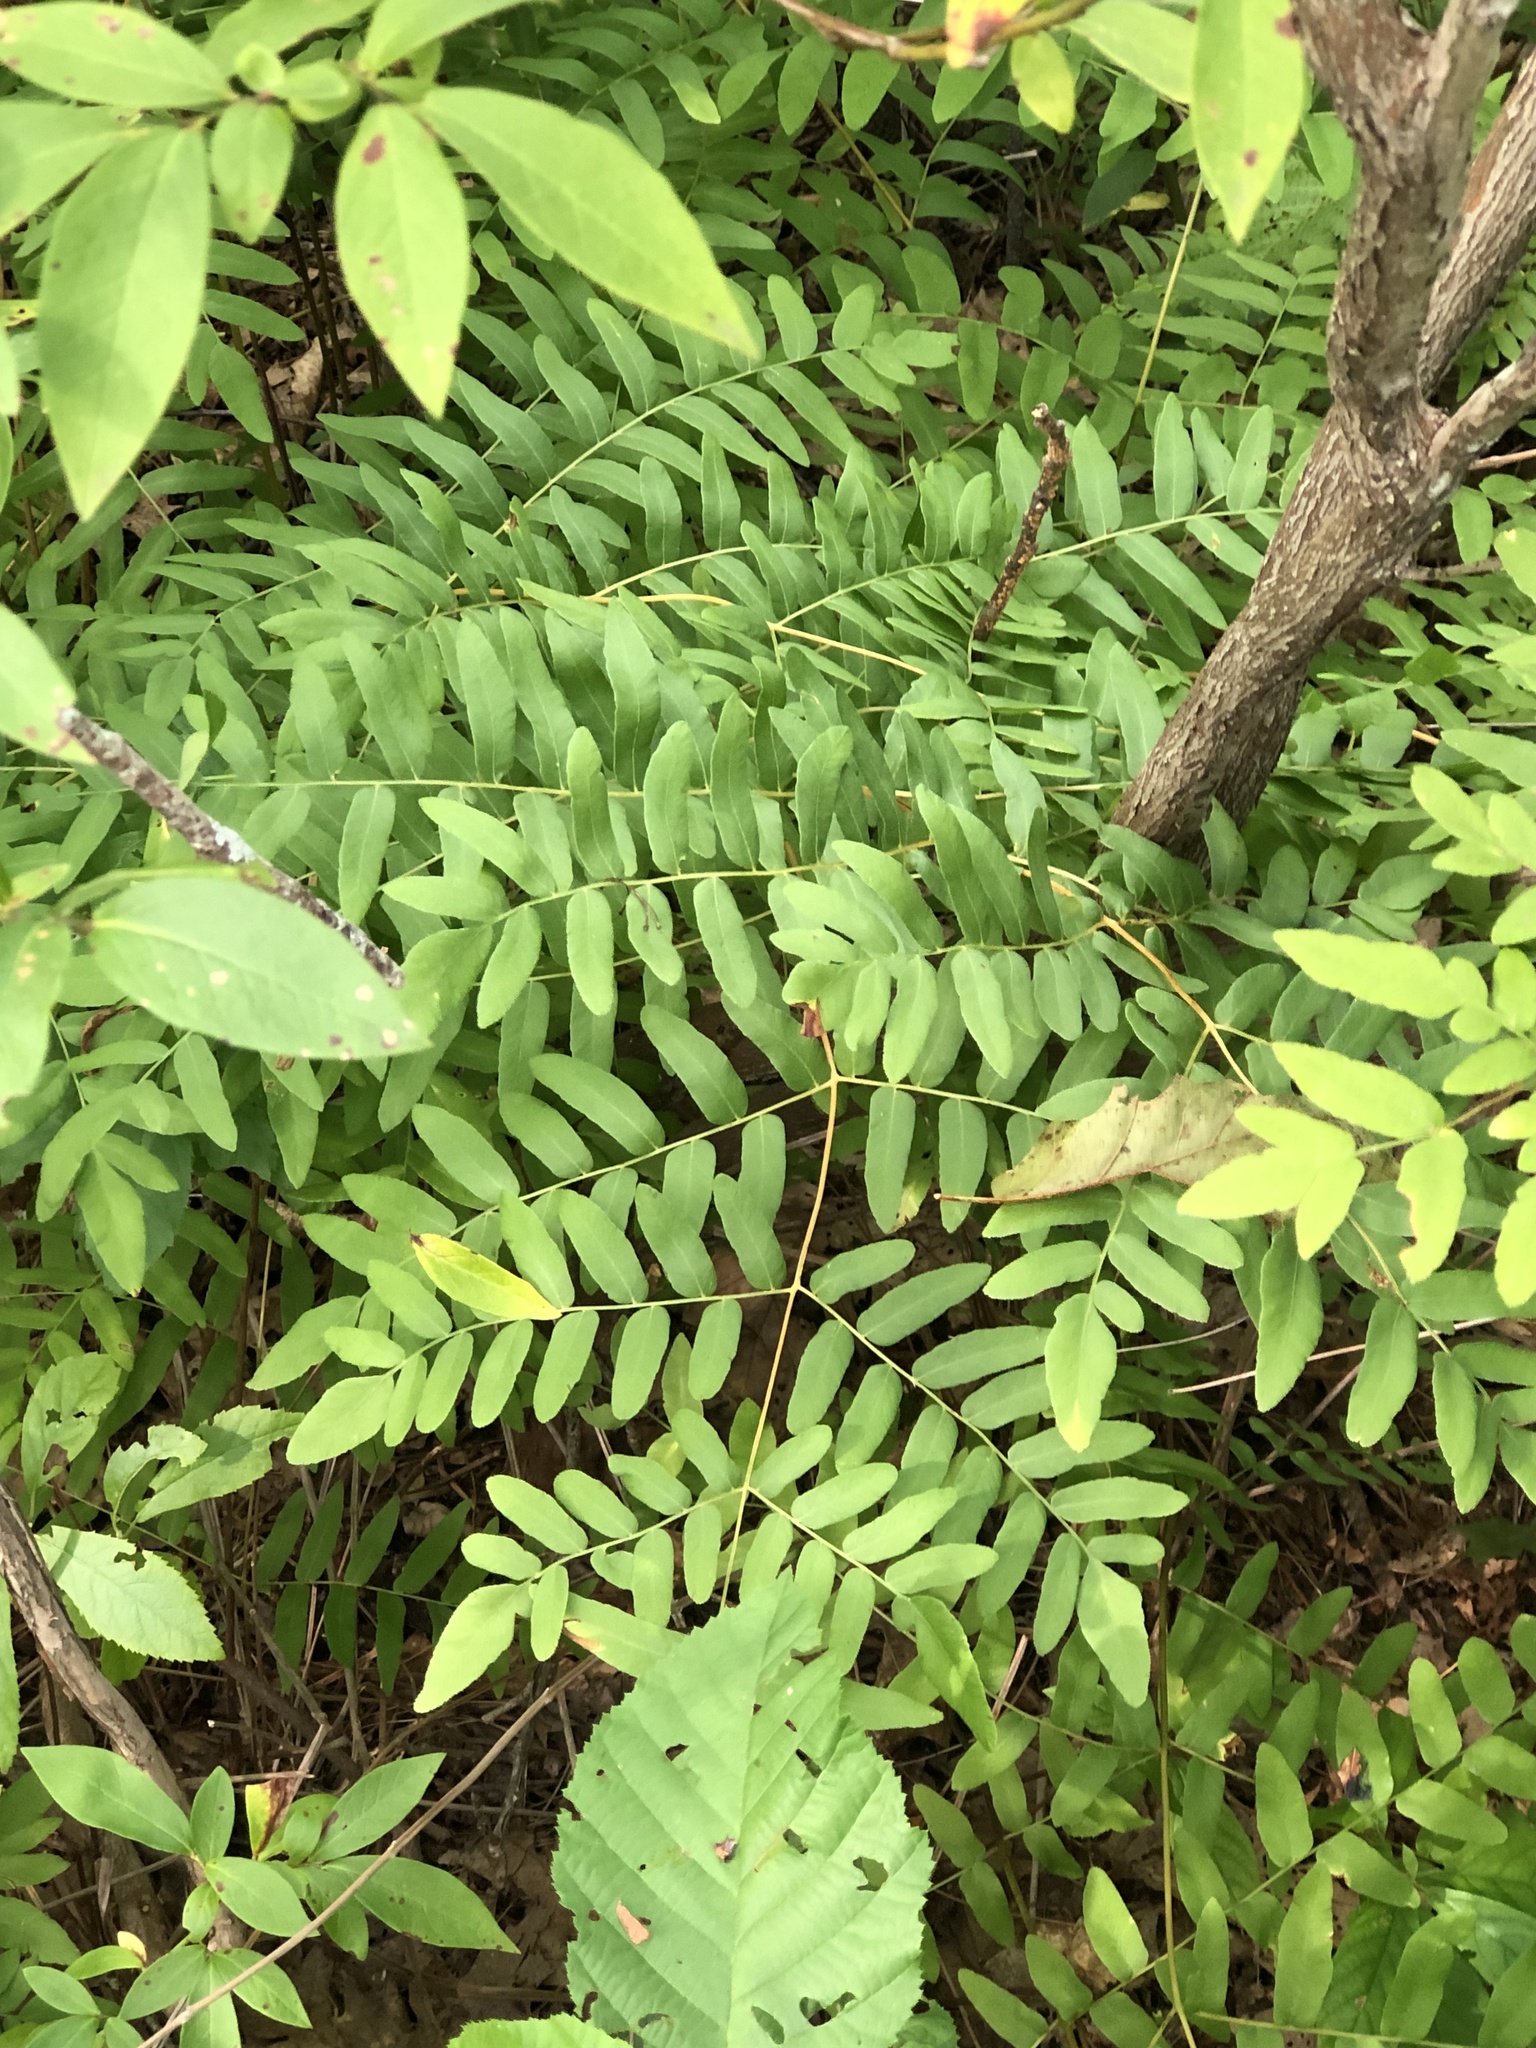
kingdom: Plantae
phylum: Tracheophyta
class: Polypodiopsida
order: Osmundales
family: Osmundaceae
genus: Osmunda
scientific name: Osmunda spectabilis
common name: American royal fern
